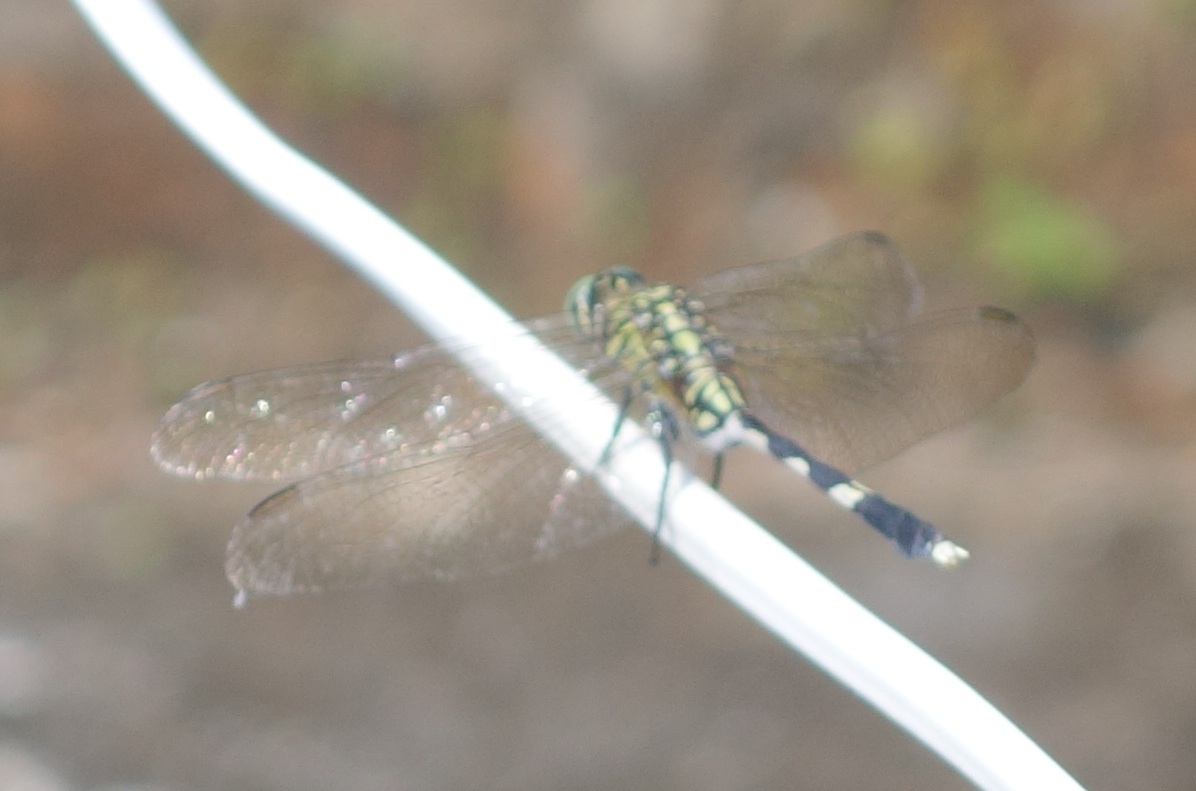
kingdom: Animalia
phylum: Arthropoda
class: Insecta
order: Odonata
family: Libellulidae
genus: Orthetrum
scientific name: Orthetrum sabina
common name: Slender skimmer
